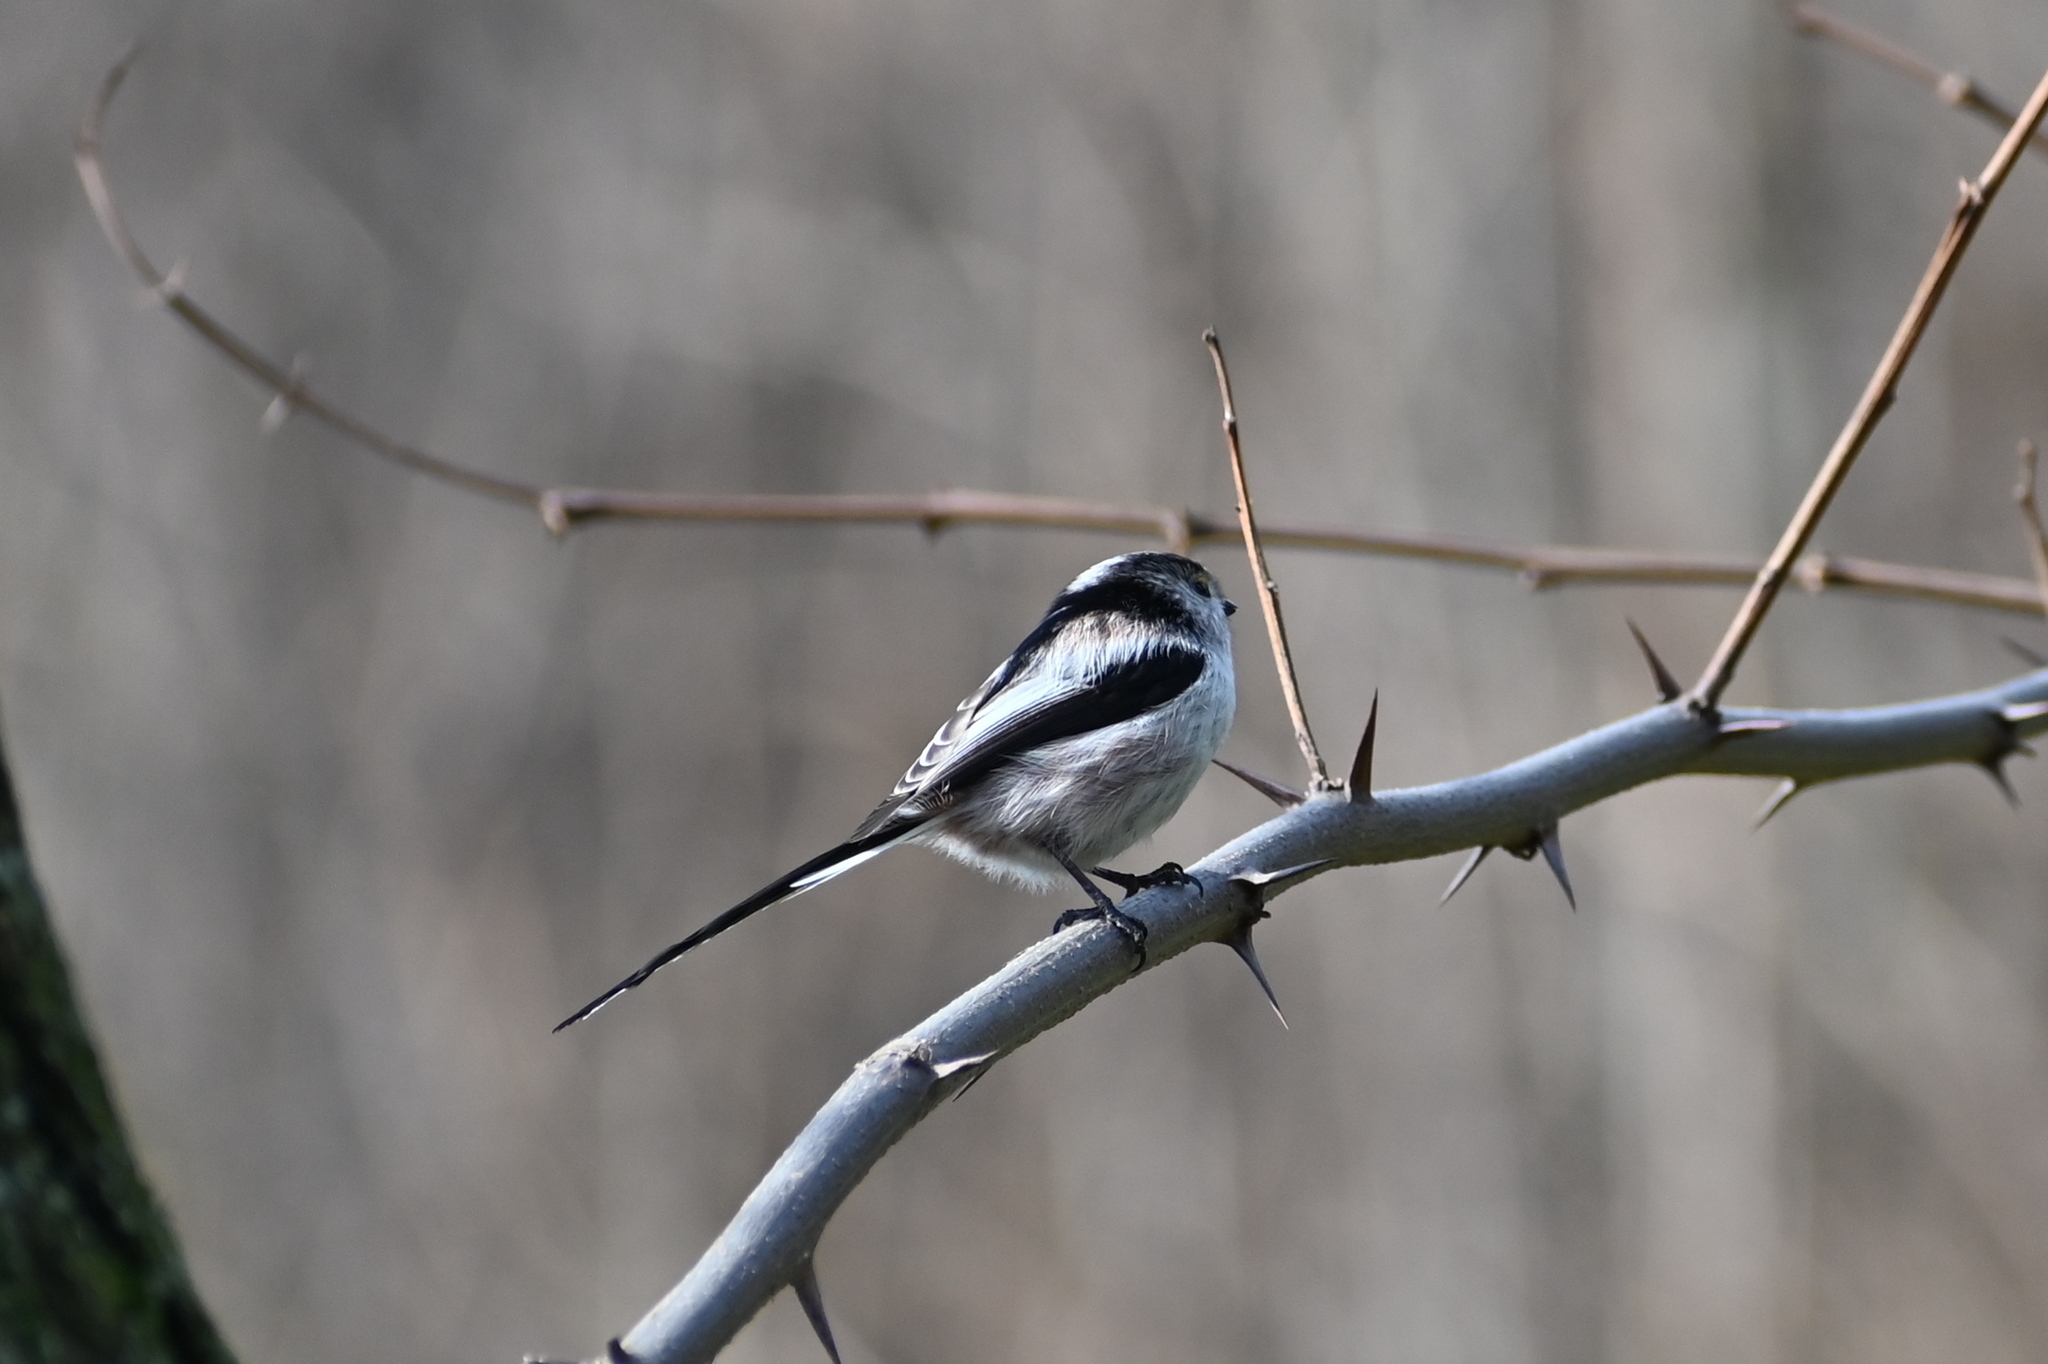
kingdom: Animalia
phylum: Chordata
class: Aves
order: Passeriformes
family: Aegithalidae
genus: Aegithalos
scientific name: Aegithalos caudatus
